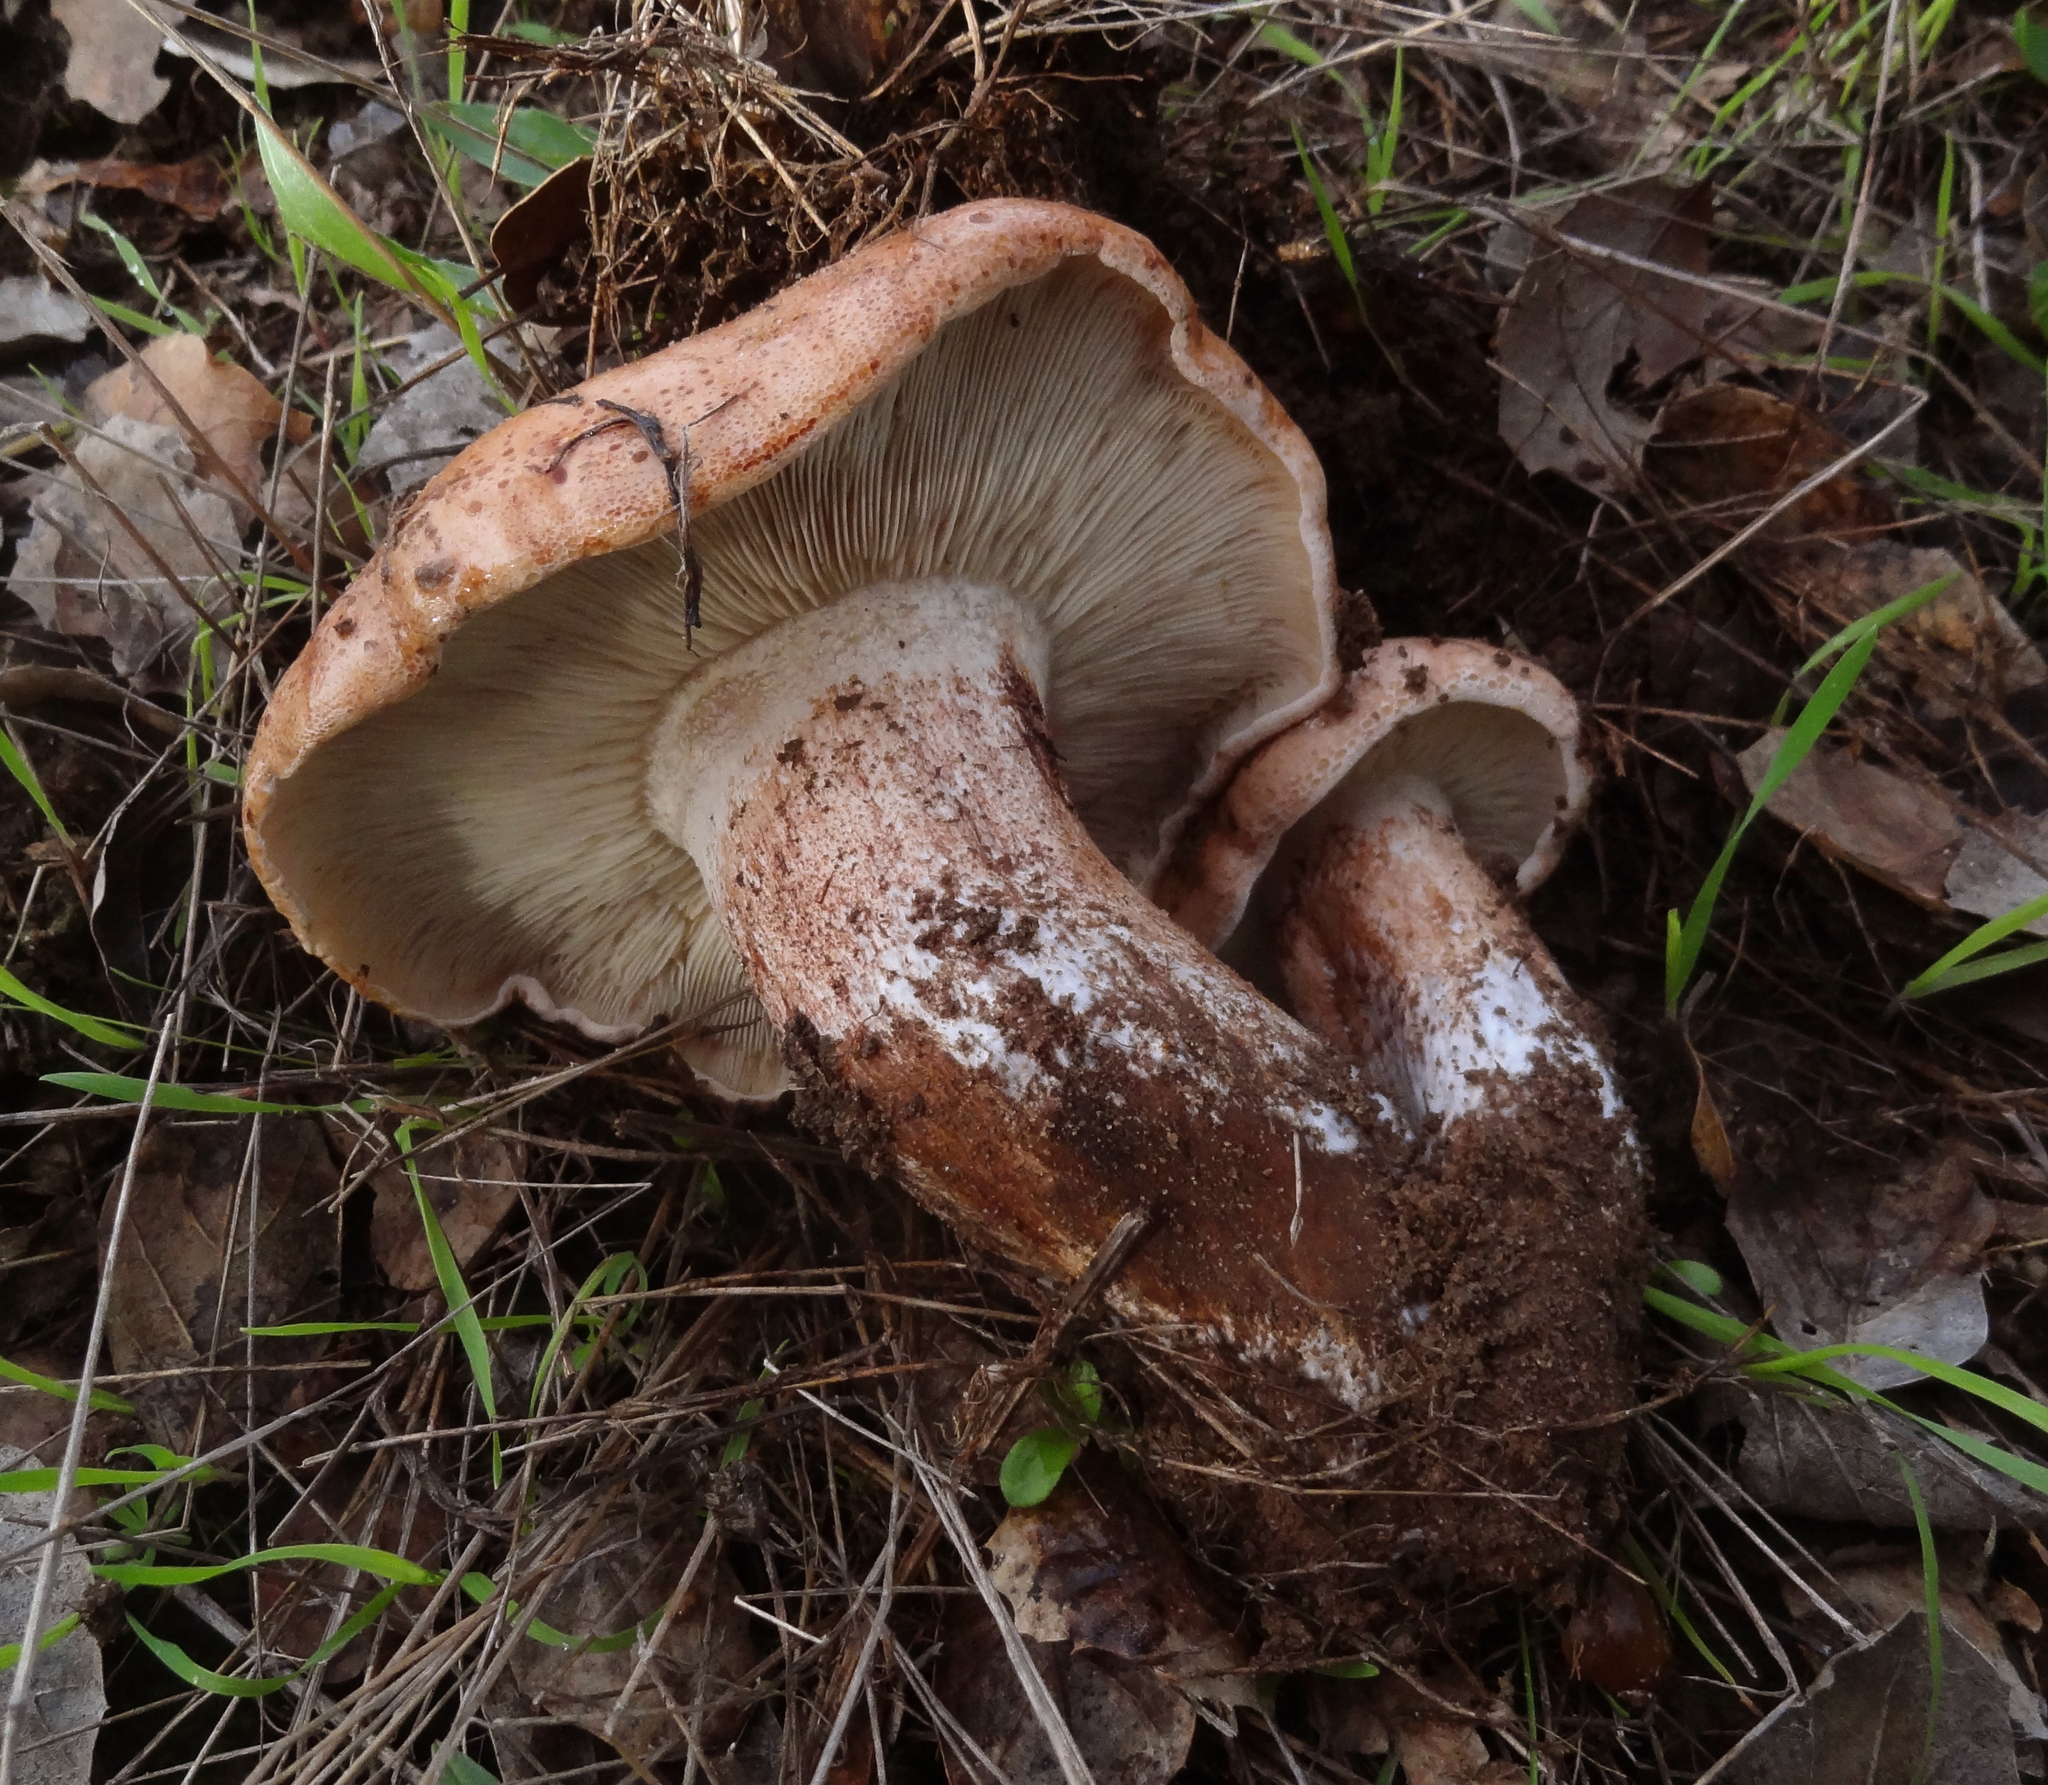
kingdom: Fungi
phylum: Basidiomycota
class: Agaricomycetes
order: Agaricales
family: Tricholomataceae
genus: Melanoleuca
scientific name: Melanoleuca dryophila
